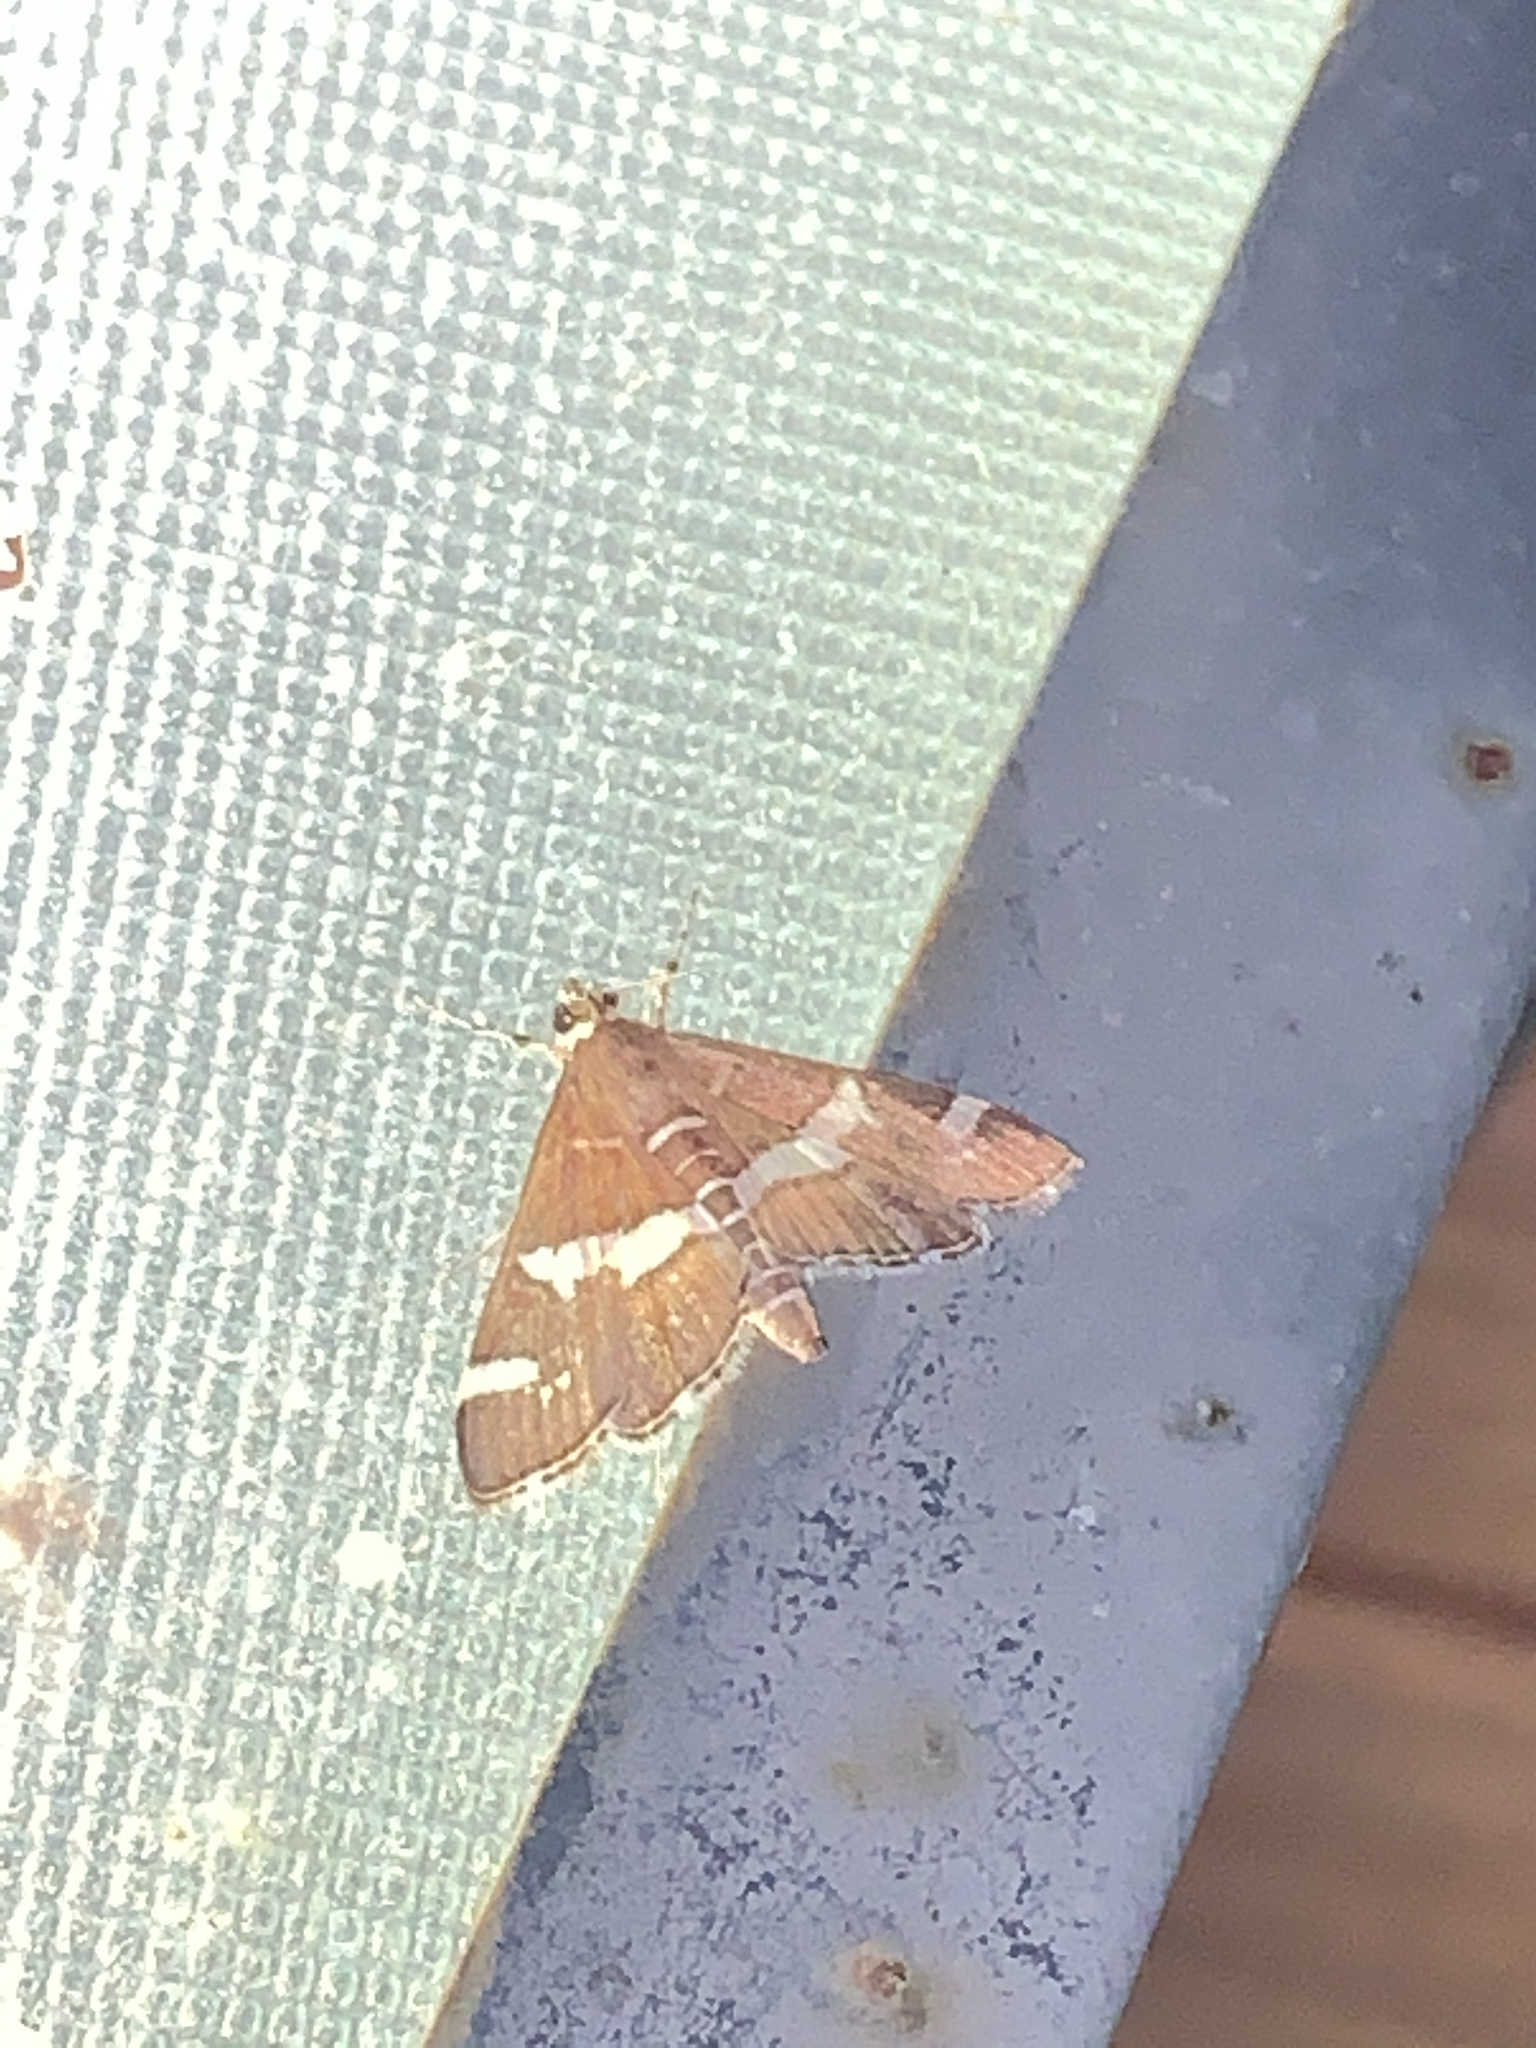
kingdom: Animalia
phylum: Arthropoda
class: Insecta
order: Lepidoptera
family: Crambidae
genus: Spoladea
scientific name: Spoladea recurvalis
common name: Beet webworm moth
